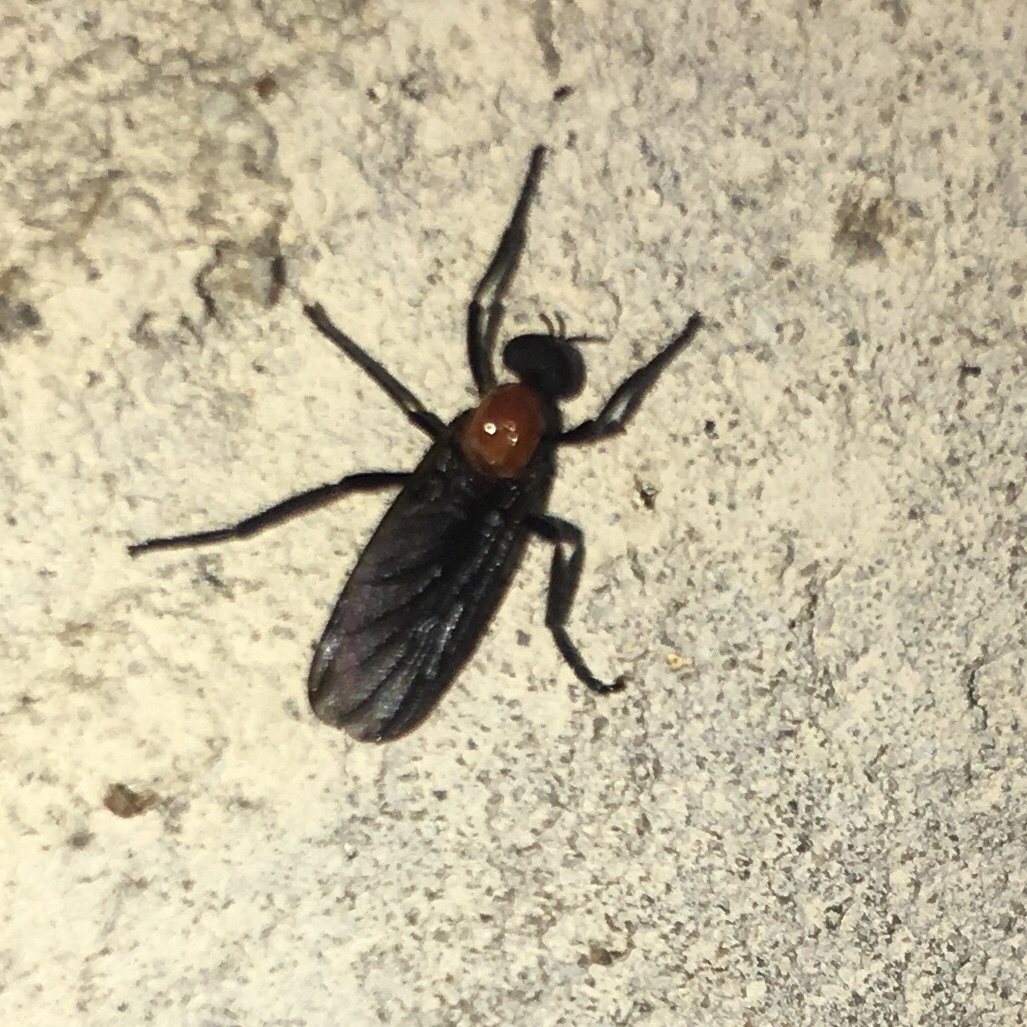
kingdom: Animalia
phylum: Arthropoda
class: Insecta
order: Diptera
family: Bibionidae
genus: Plecia
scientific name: Plecia nearctica
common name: March fly
